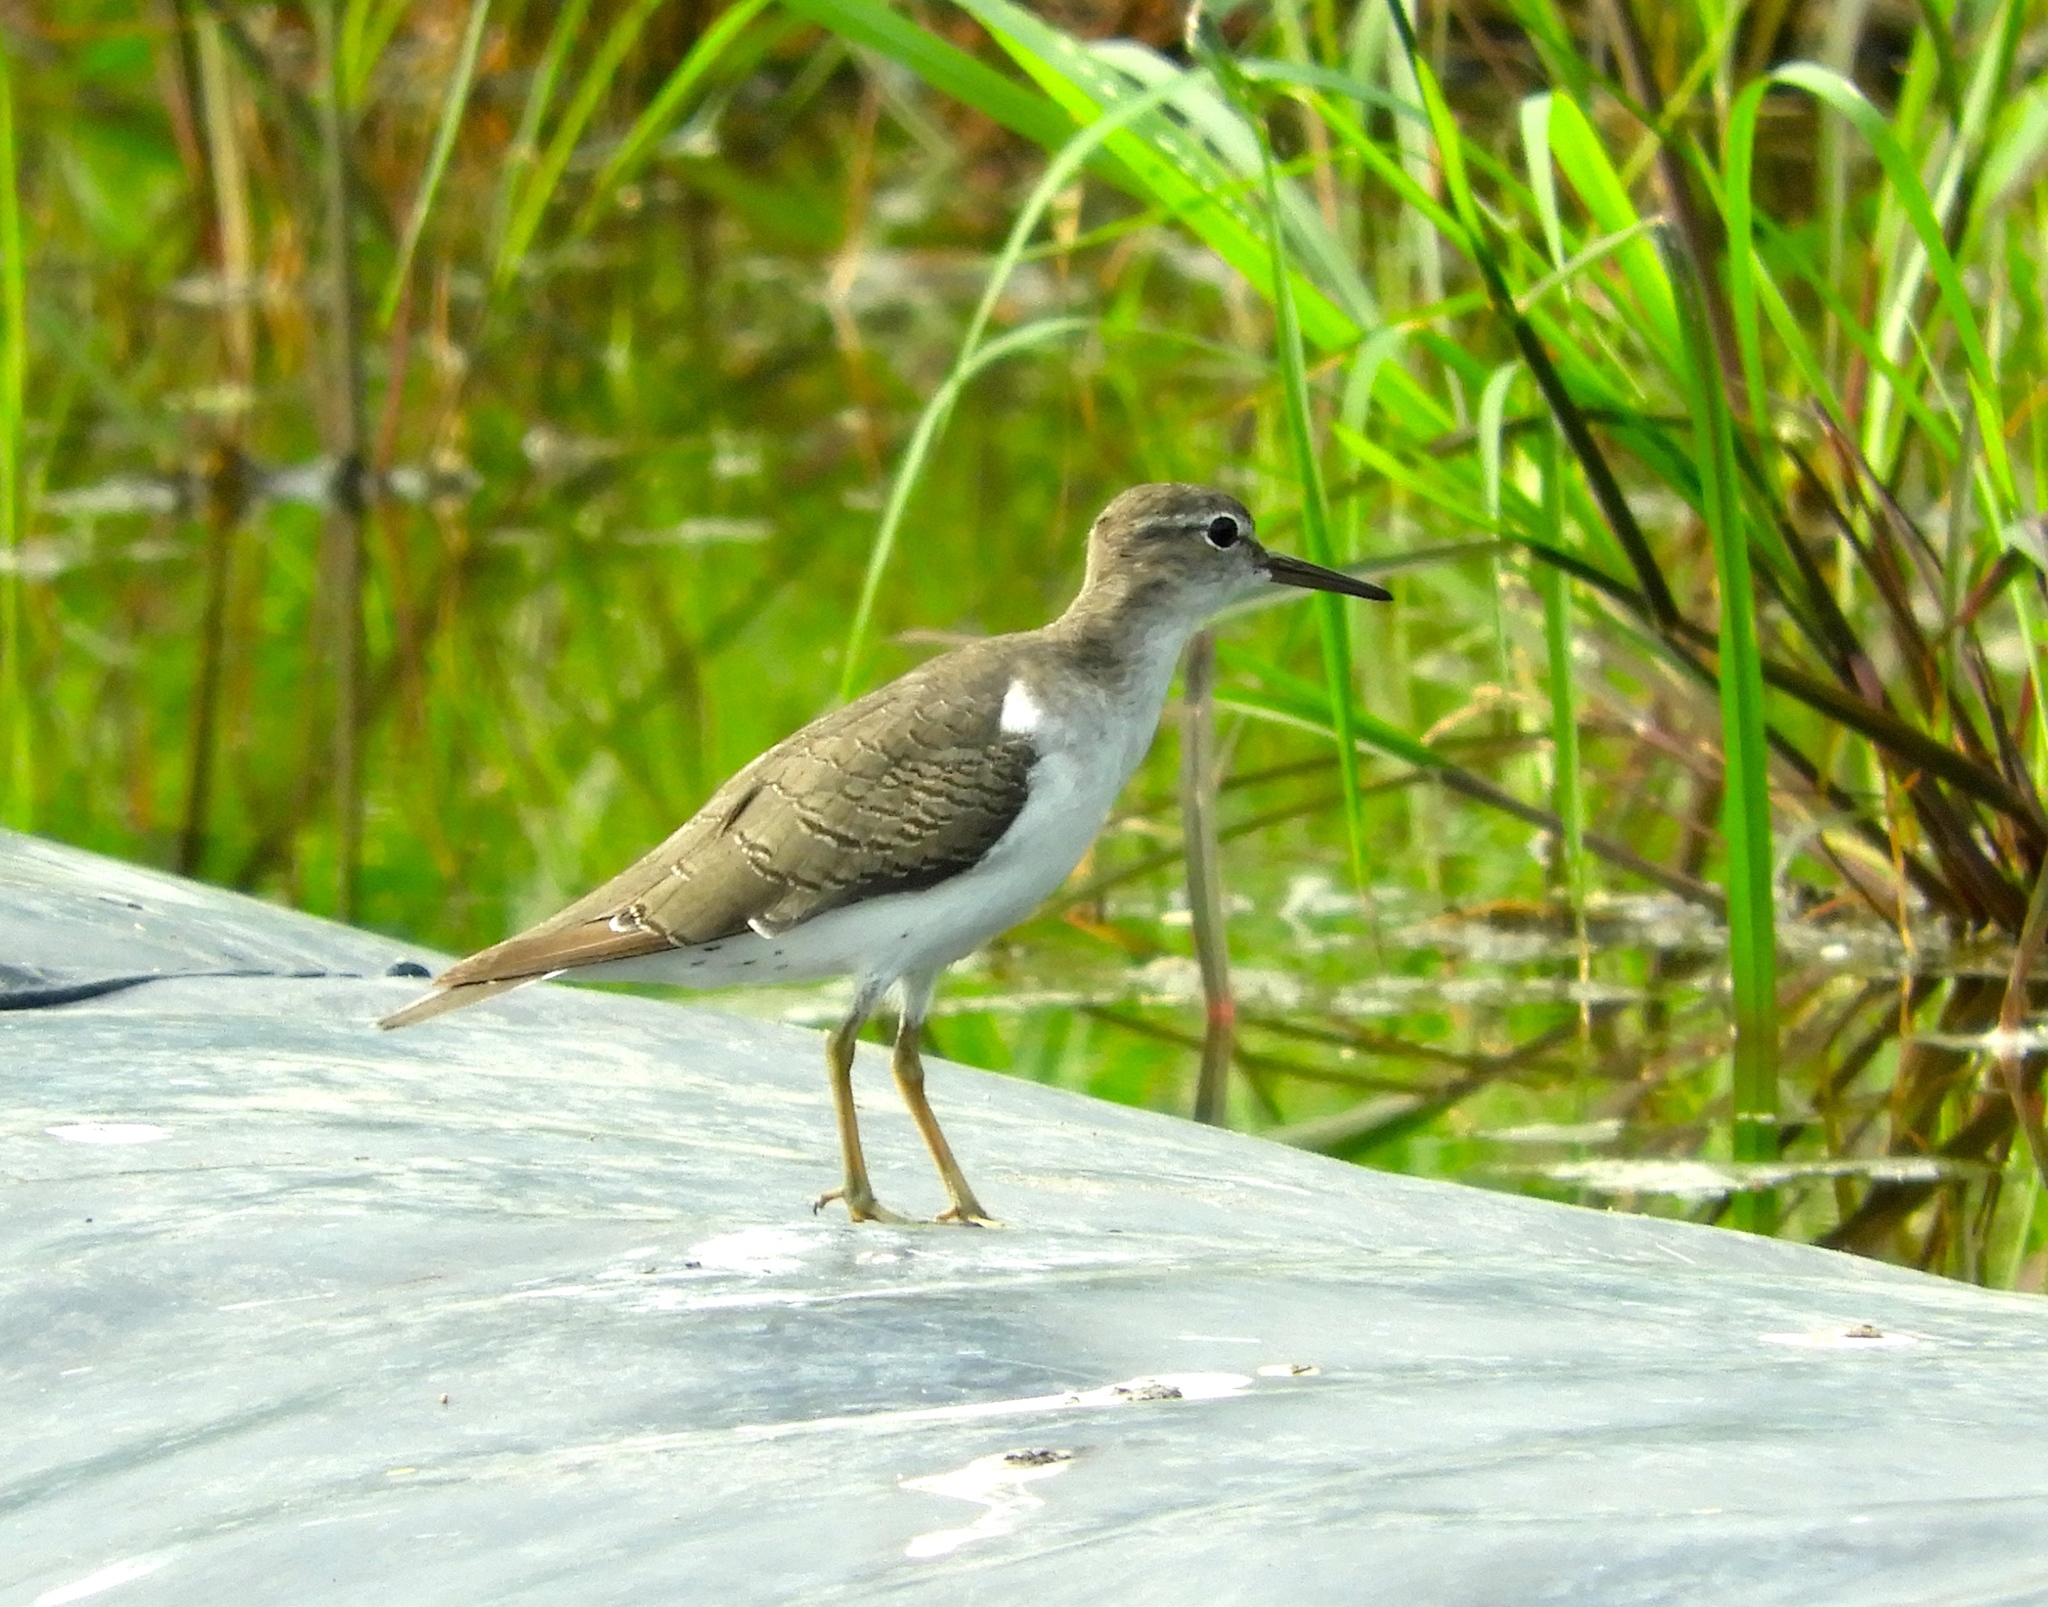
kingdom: Animalia
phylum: Chordata
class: Aves
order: Charadriiformes
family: Scolopacidae
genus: Actitis
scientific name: Actitis macularius
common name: Spotted sandpiper
